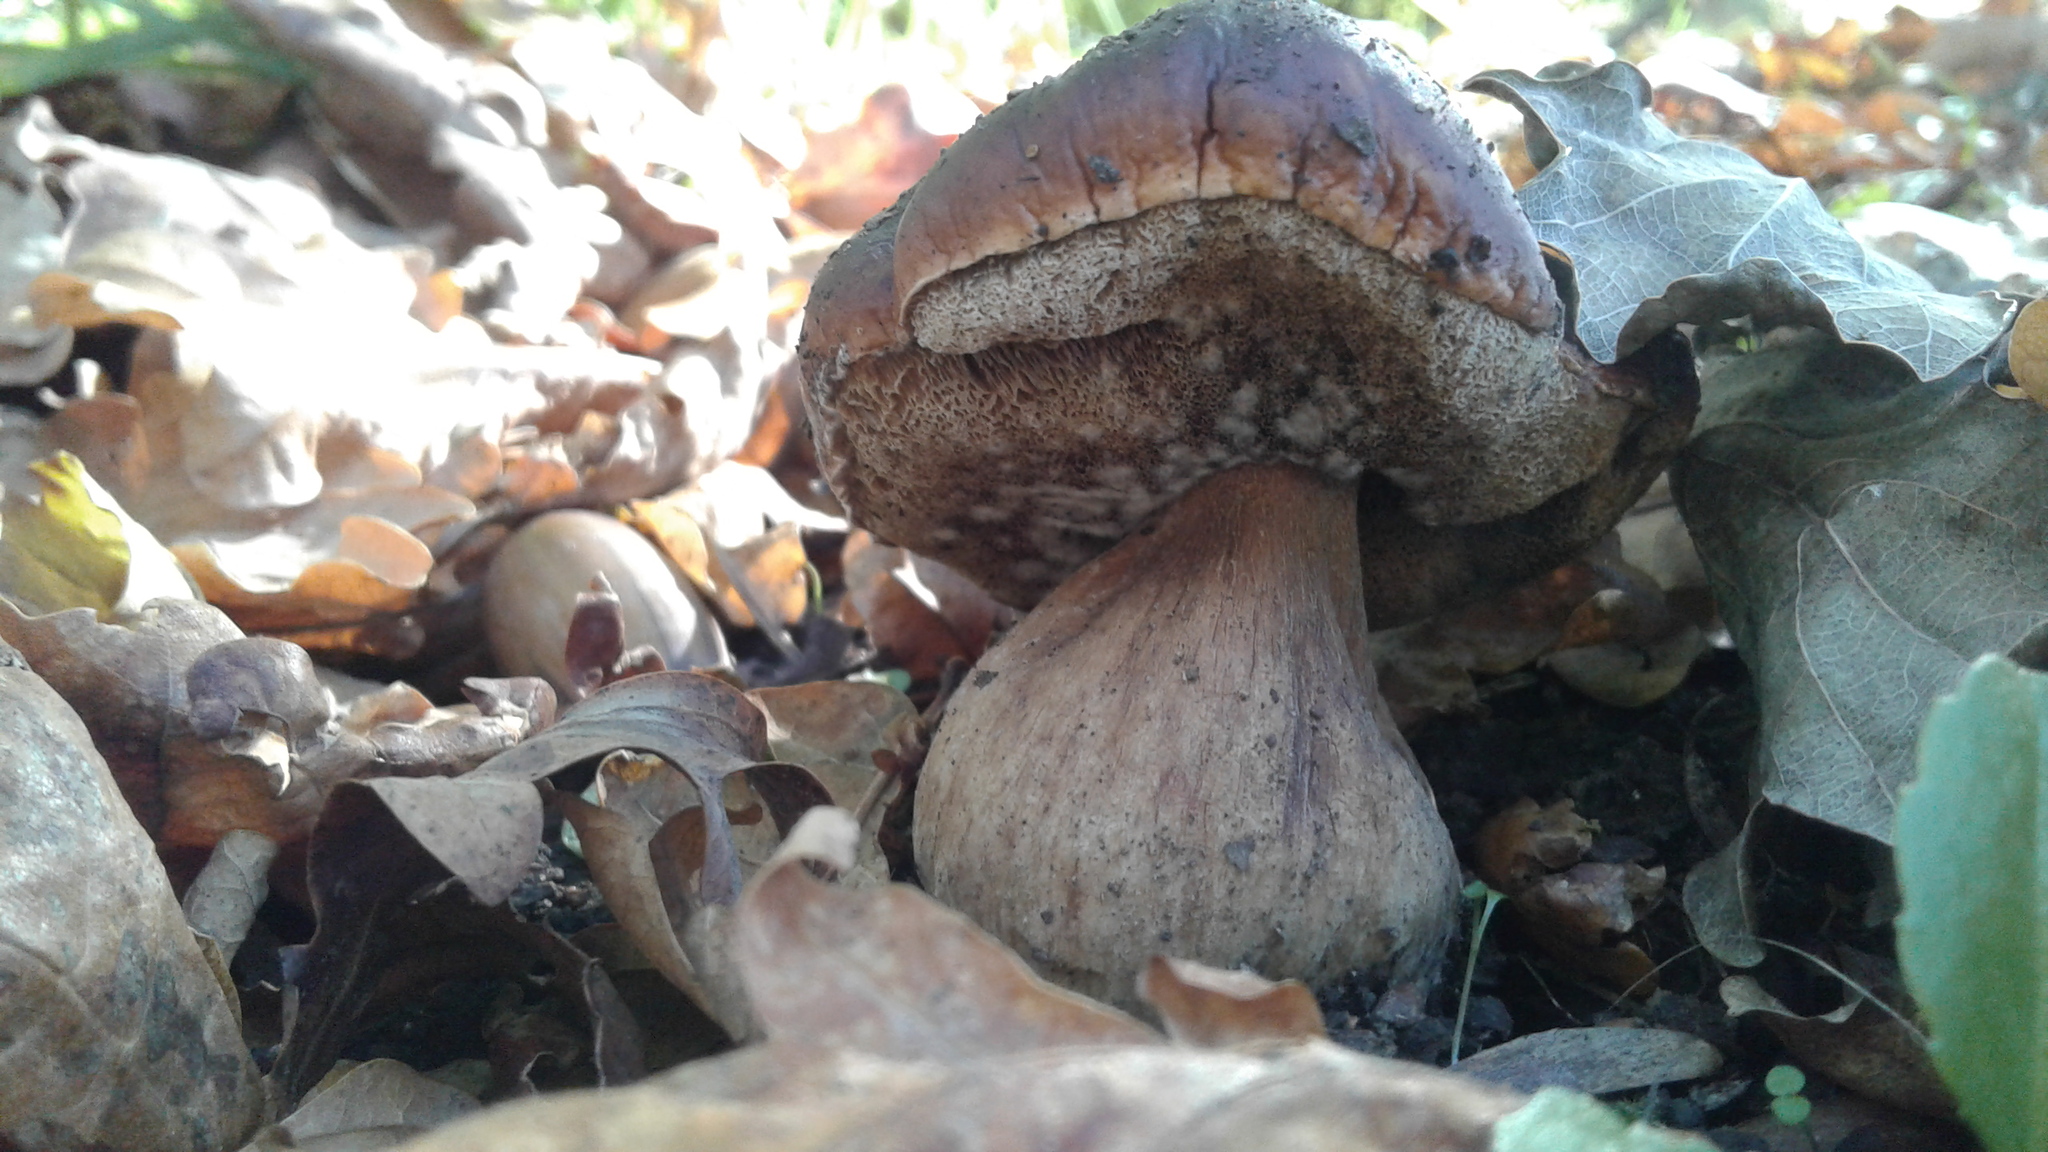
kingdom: Fungi
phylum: Basidiomycota
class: Agaricomycetes
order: Boletales
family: Boletaceae
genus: Boletus
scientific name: Boletus edulis
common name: Cep
